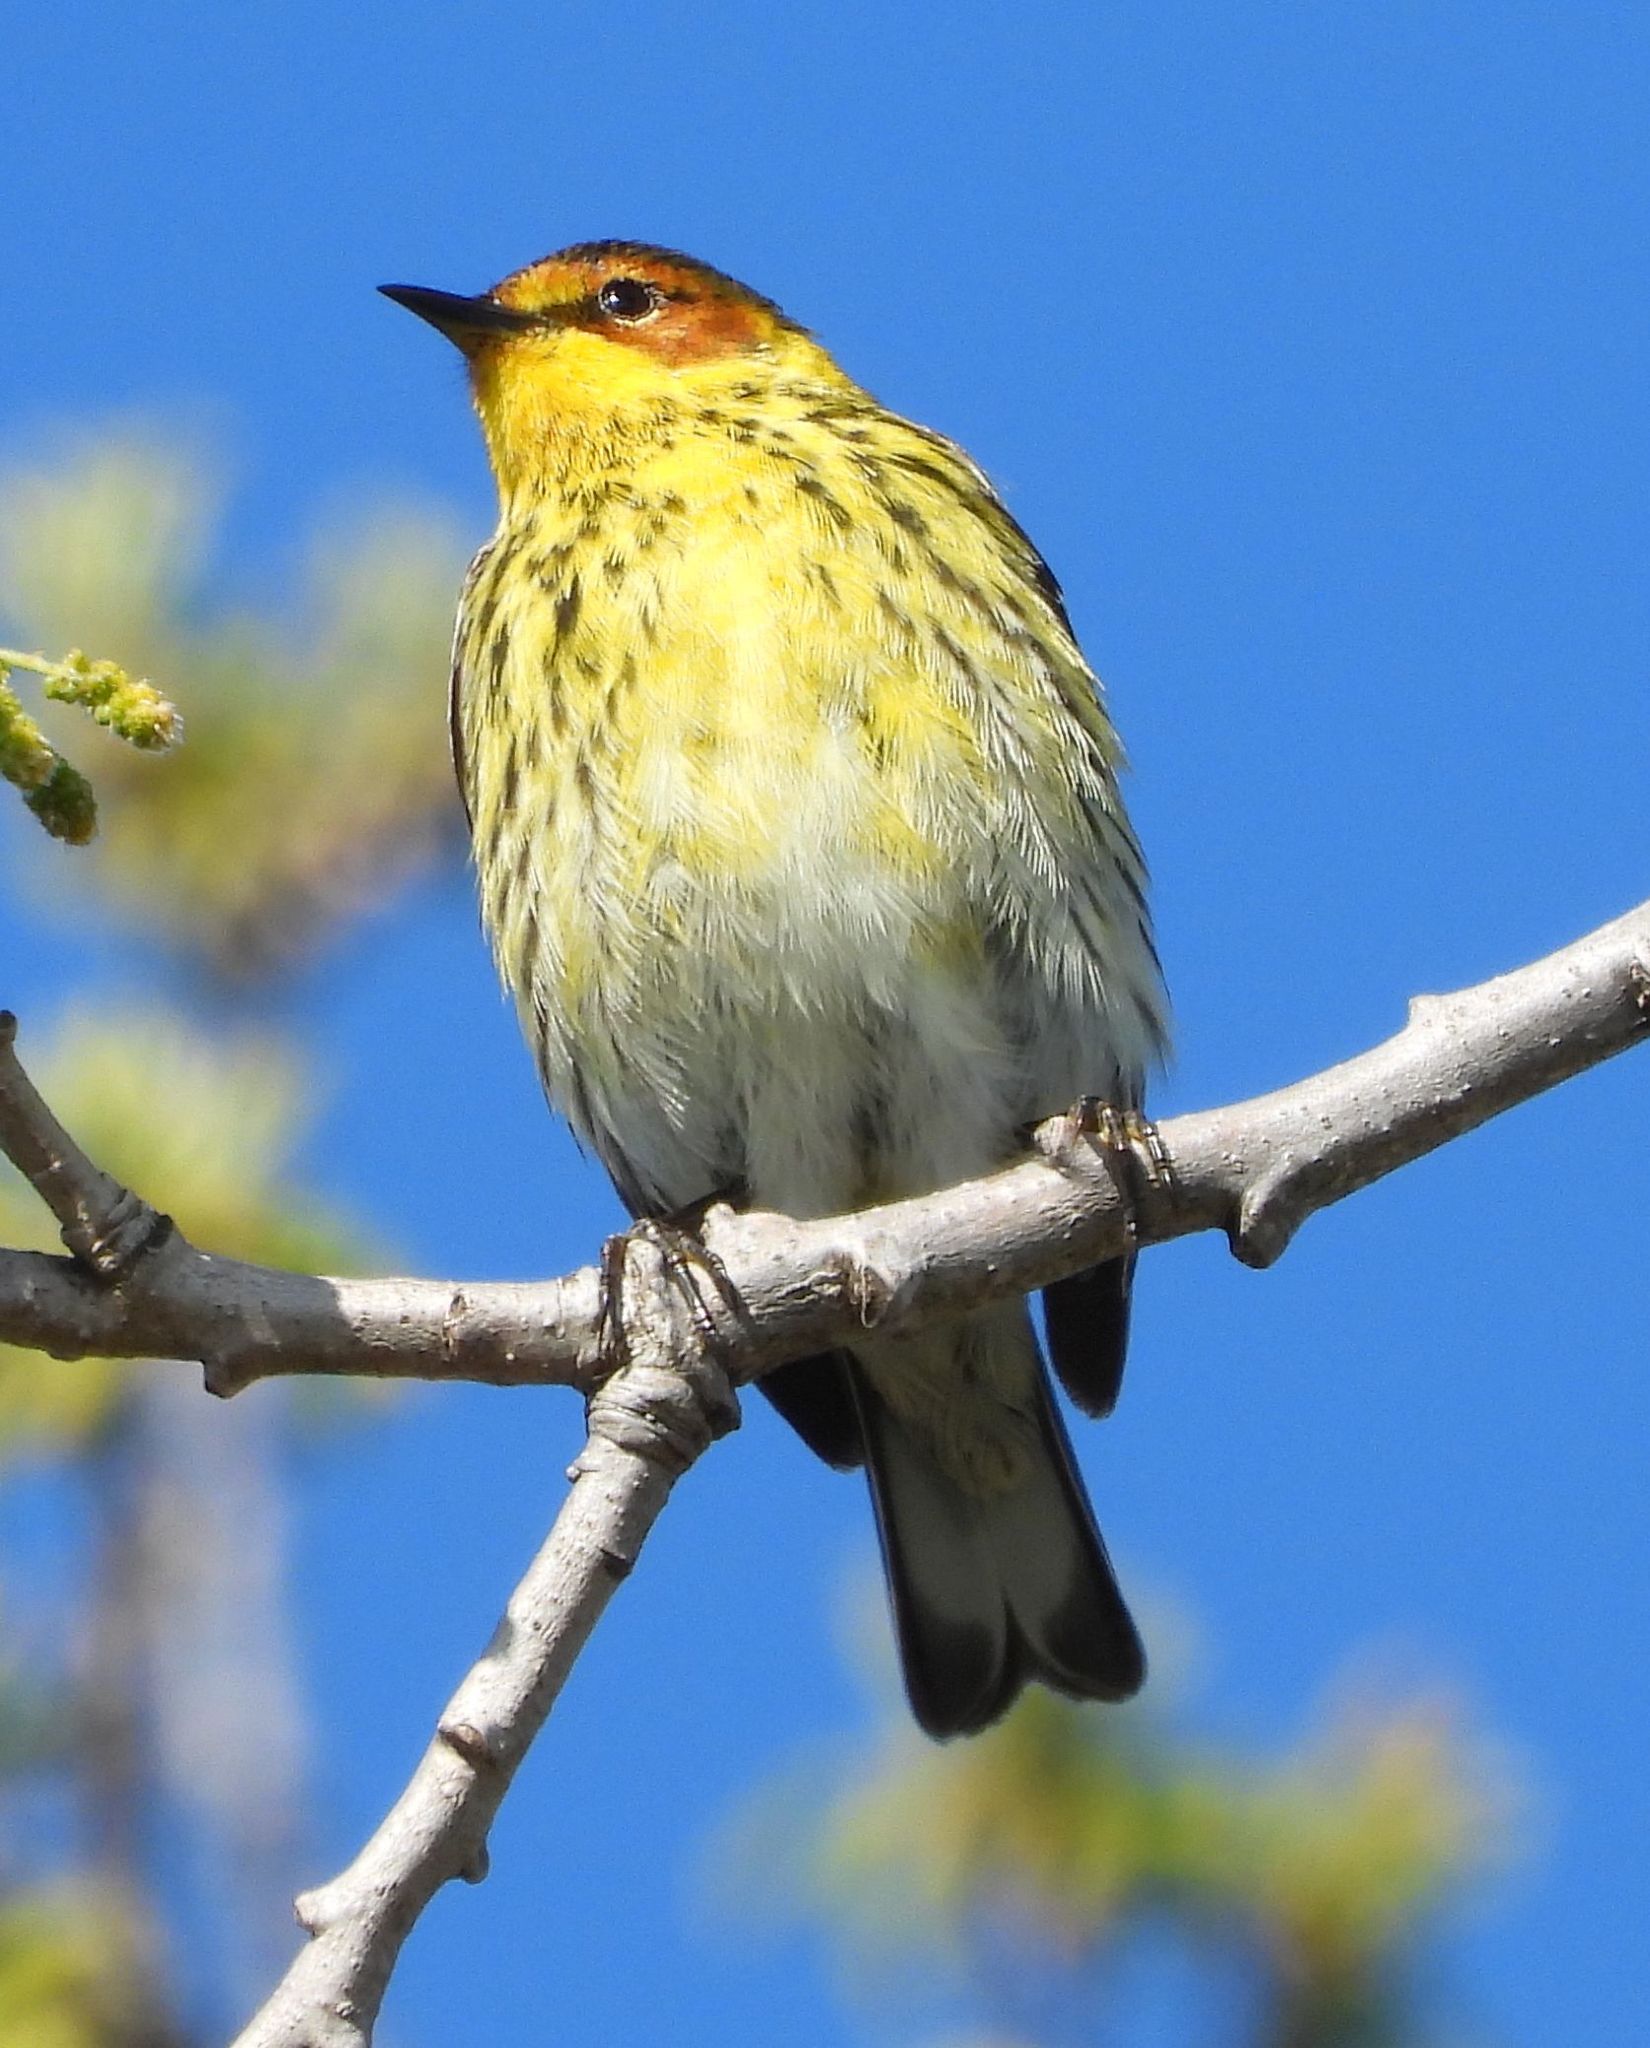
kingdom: Animalia
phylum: Chordata
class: Aves
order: Passeriformes
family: Parulidae
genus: Setophaga
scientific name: Setophaga tigrina
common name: Cape may warbler
